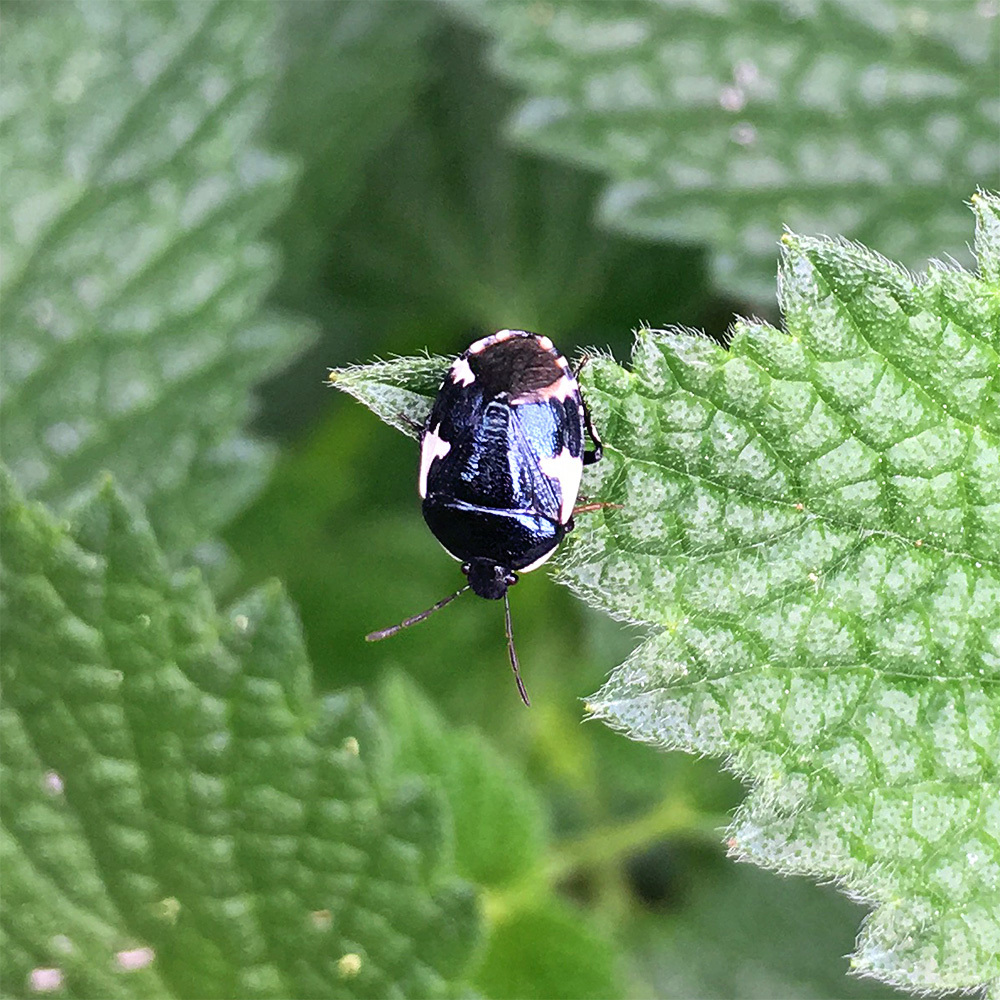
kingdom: Animalia
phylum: Arthropoda
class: Insecta
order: Hemiptera
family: Cydnidae
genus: Tritomegas
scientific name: Tritomegas sexmaculatus
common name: Rambur's pied shieldbug
